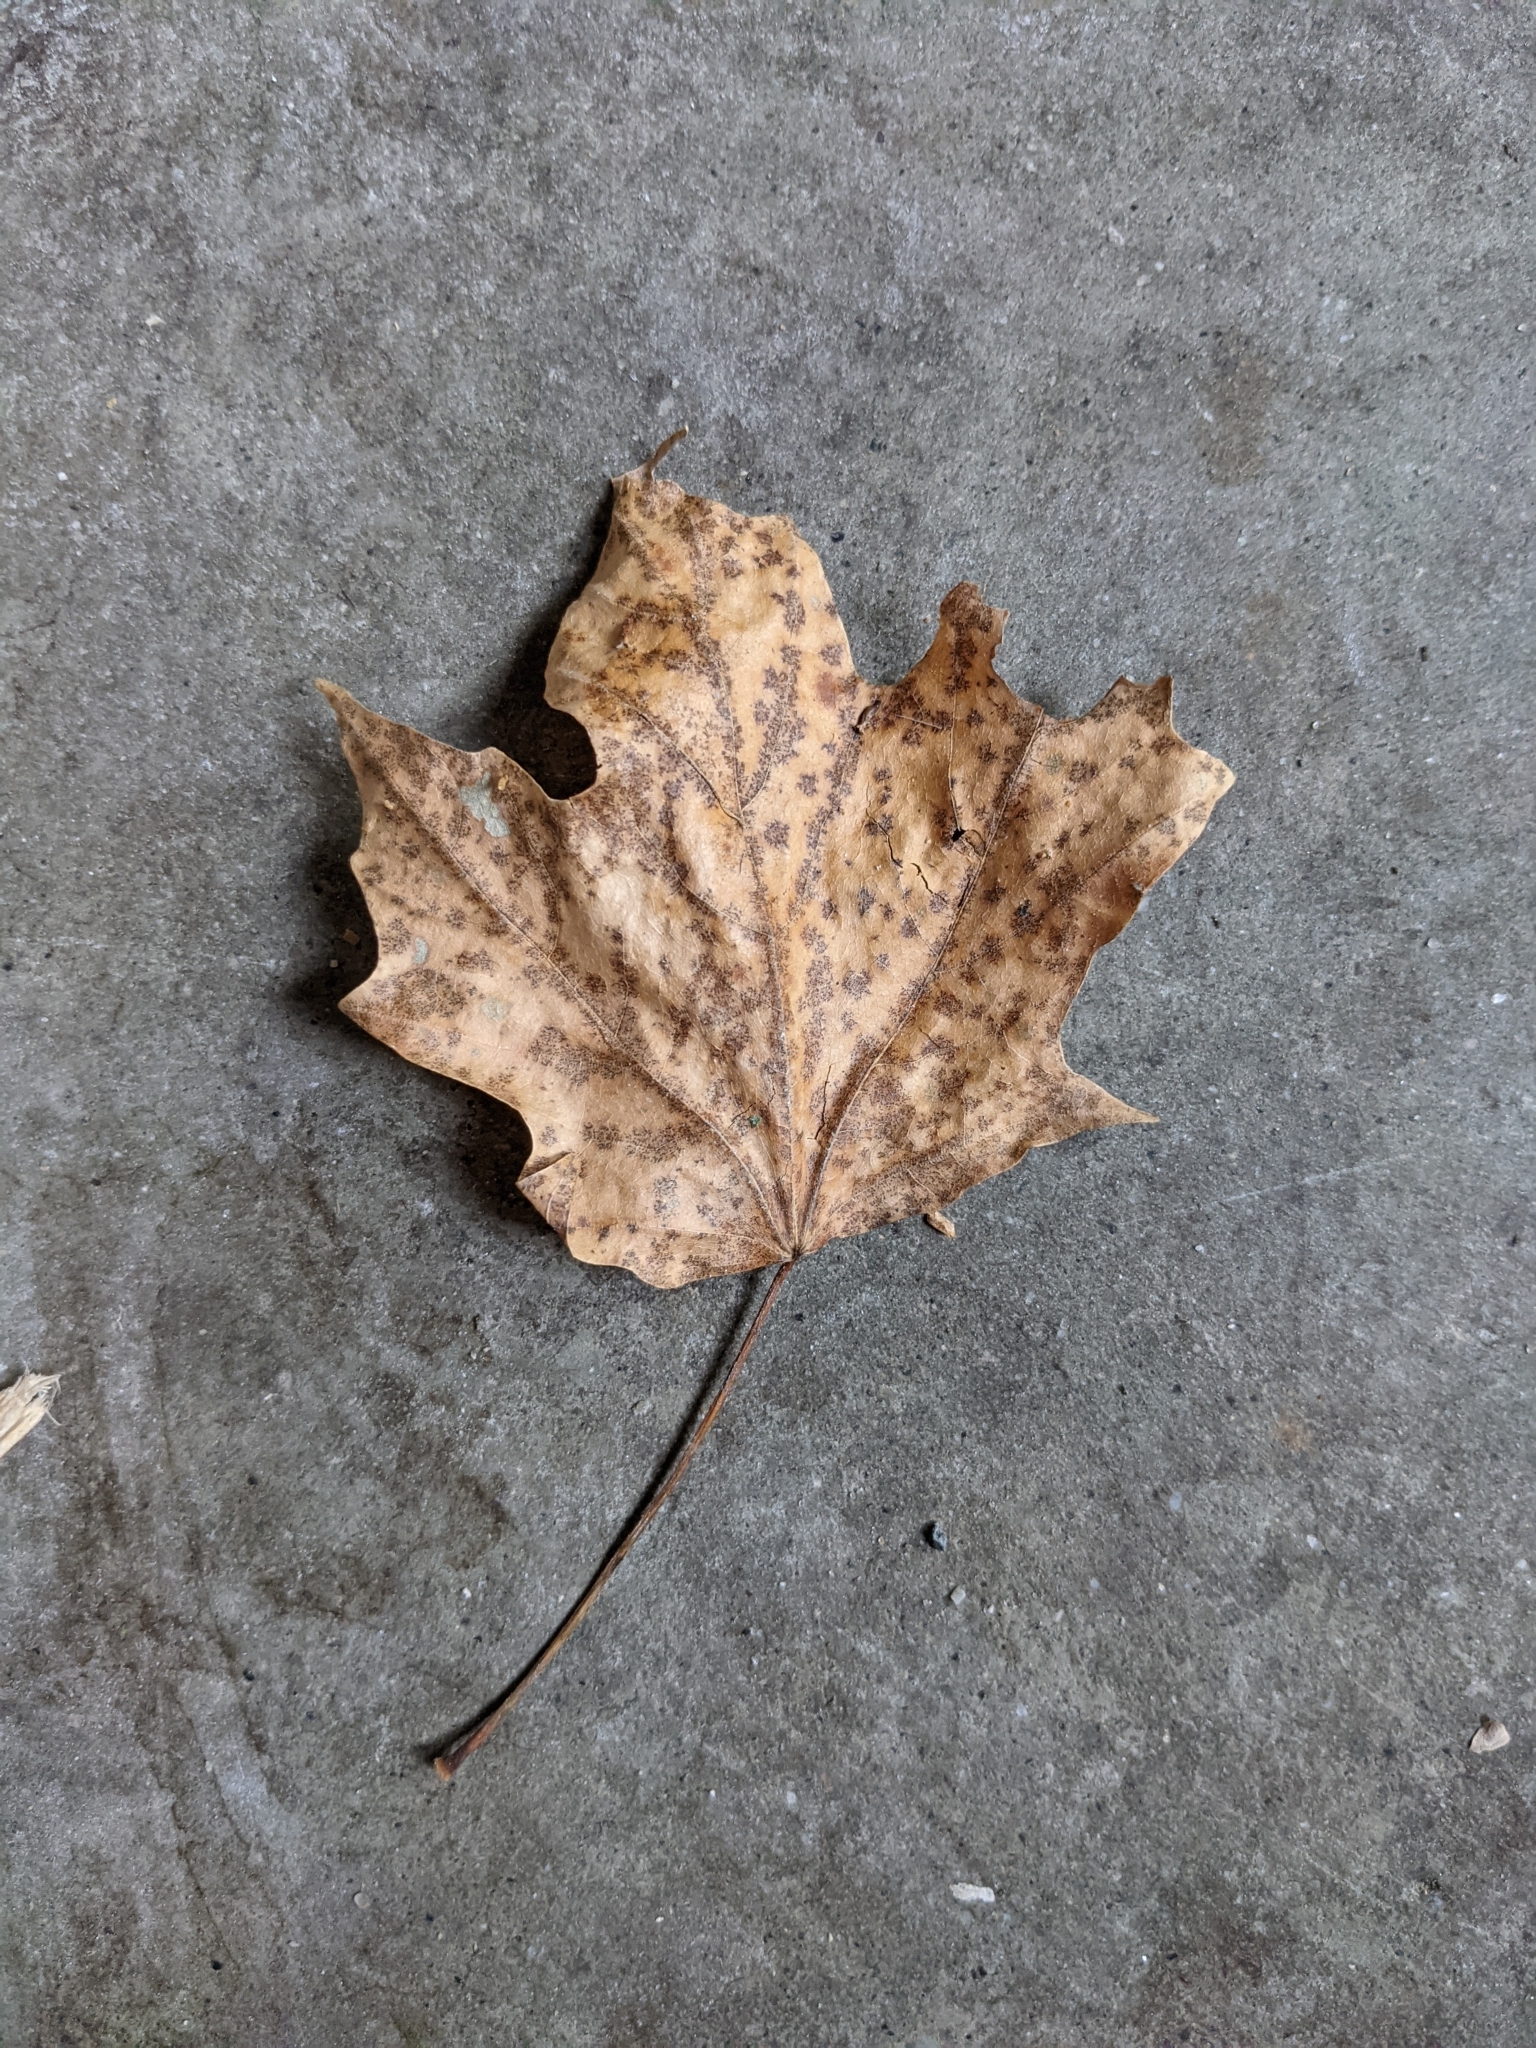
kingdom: Plantae
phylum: Tracheophyta
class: Magnoliopsida
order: Sapindales
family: Sapindaceae
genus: Acer
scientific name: Acer saccharum
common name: Sugar maple
